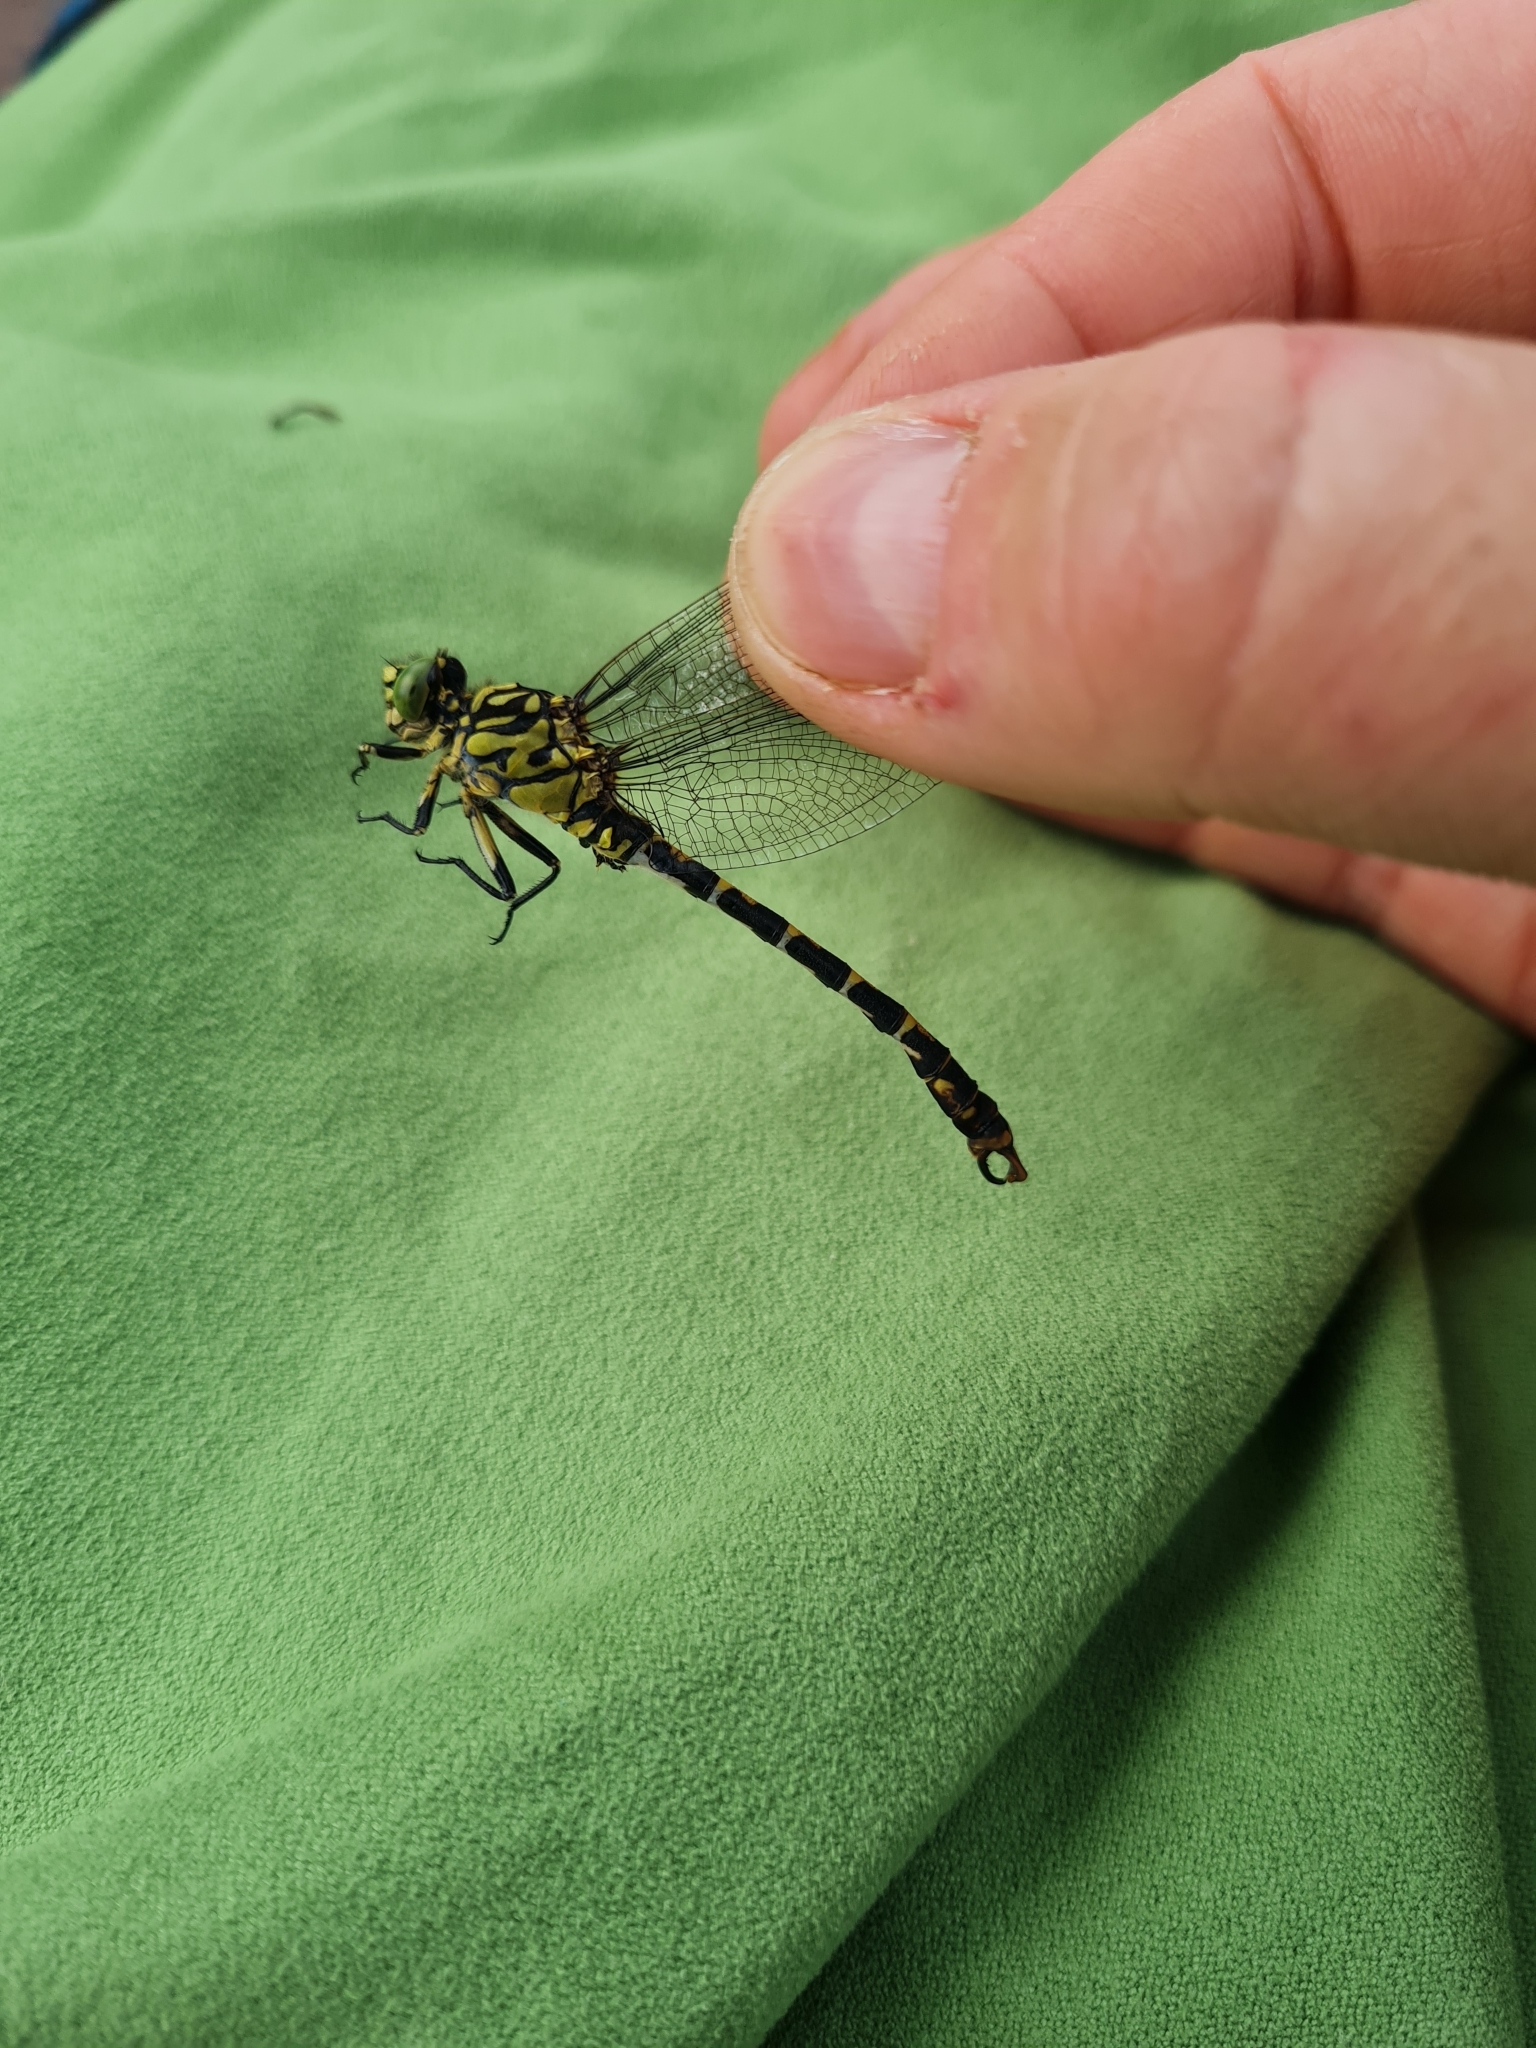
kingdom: Animalia
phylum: Arthropoda
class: Insecta
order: Odonata
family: Gomphidae
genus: Onychogomphus
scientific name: Onychogomphus forcipatus
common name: Small pincertail
